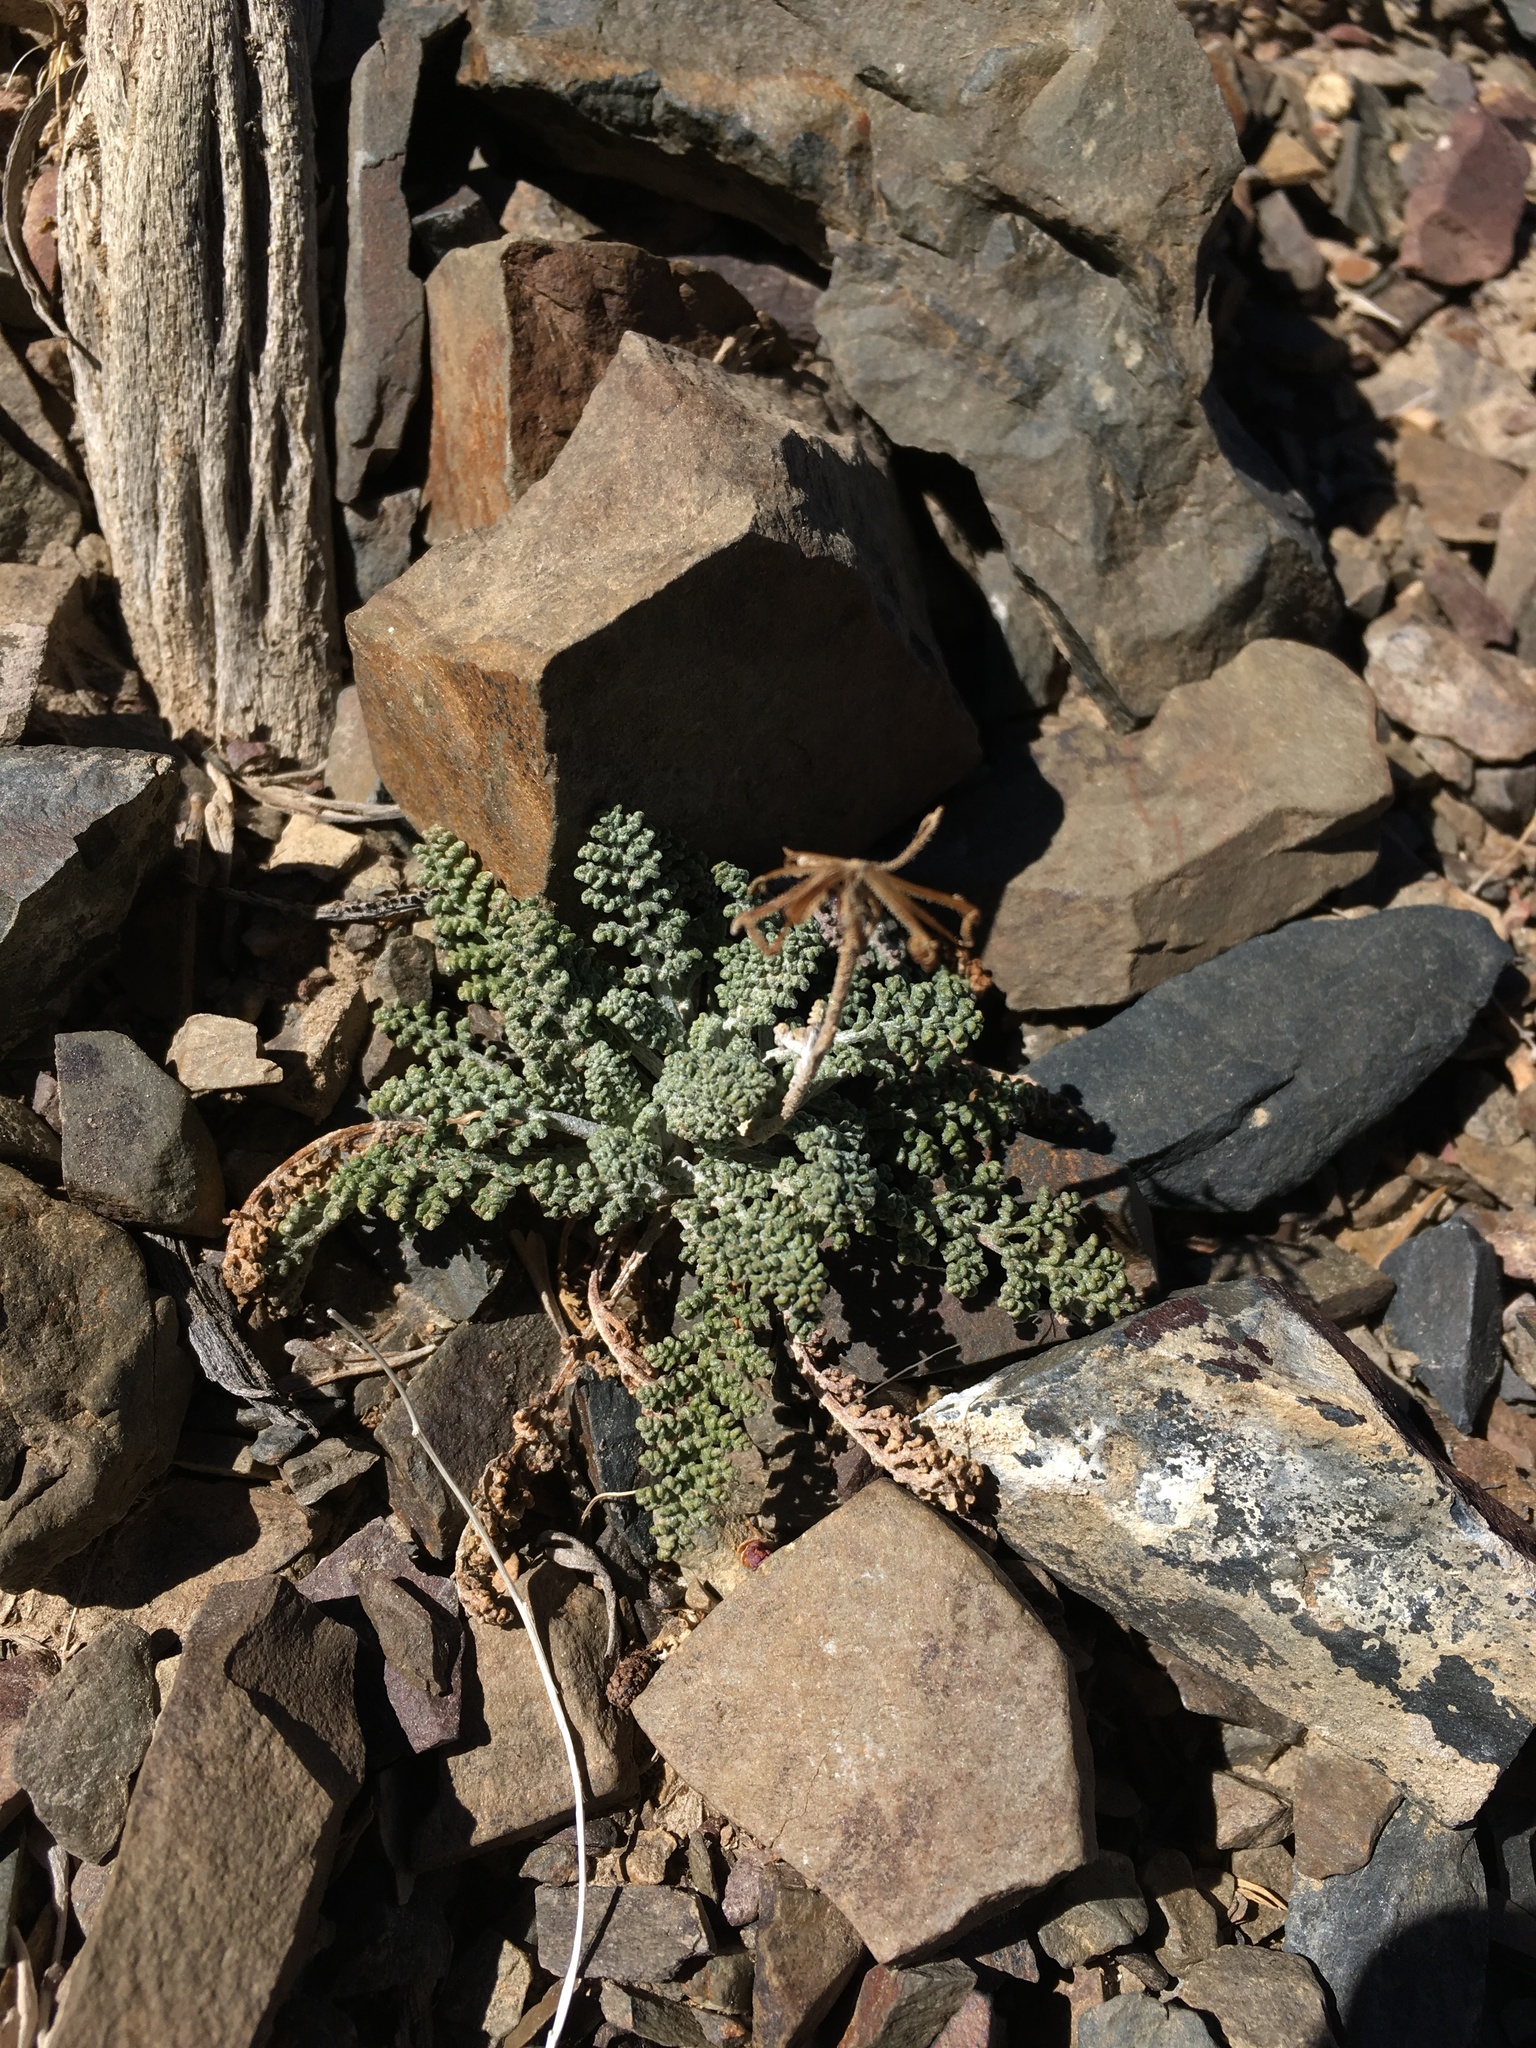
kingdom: Plantae
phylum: Tracheophyta
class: Magnoliopsida
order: Asterales
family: Asteraceae
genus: Chaenactis
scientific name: Chaenactis douglasii
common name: Hoary pincushion
